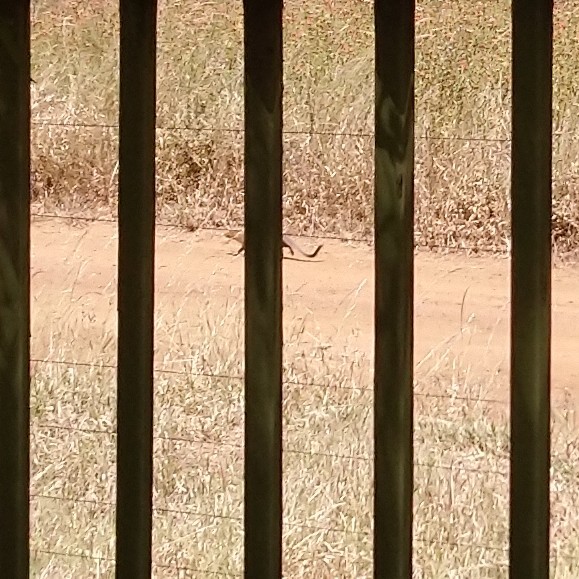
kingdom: Animalia
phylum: Chordata
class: Mammalia
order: Carnivora
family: Herpestidae
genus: Galerella
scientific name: Galerella sanguinea
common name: Slender mongoose
